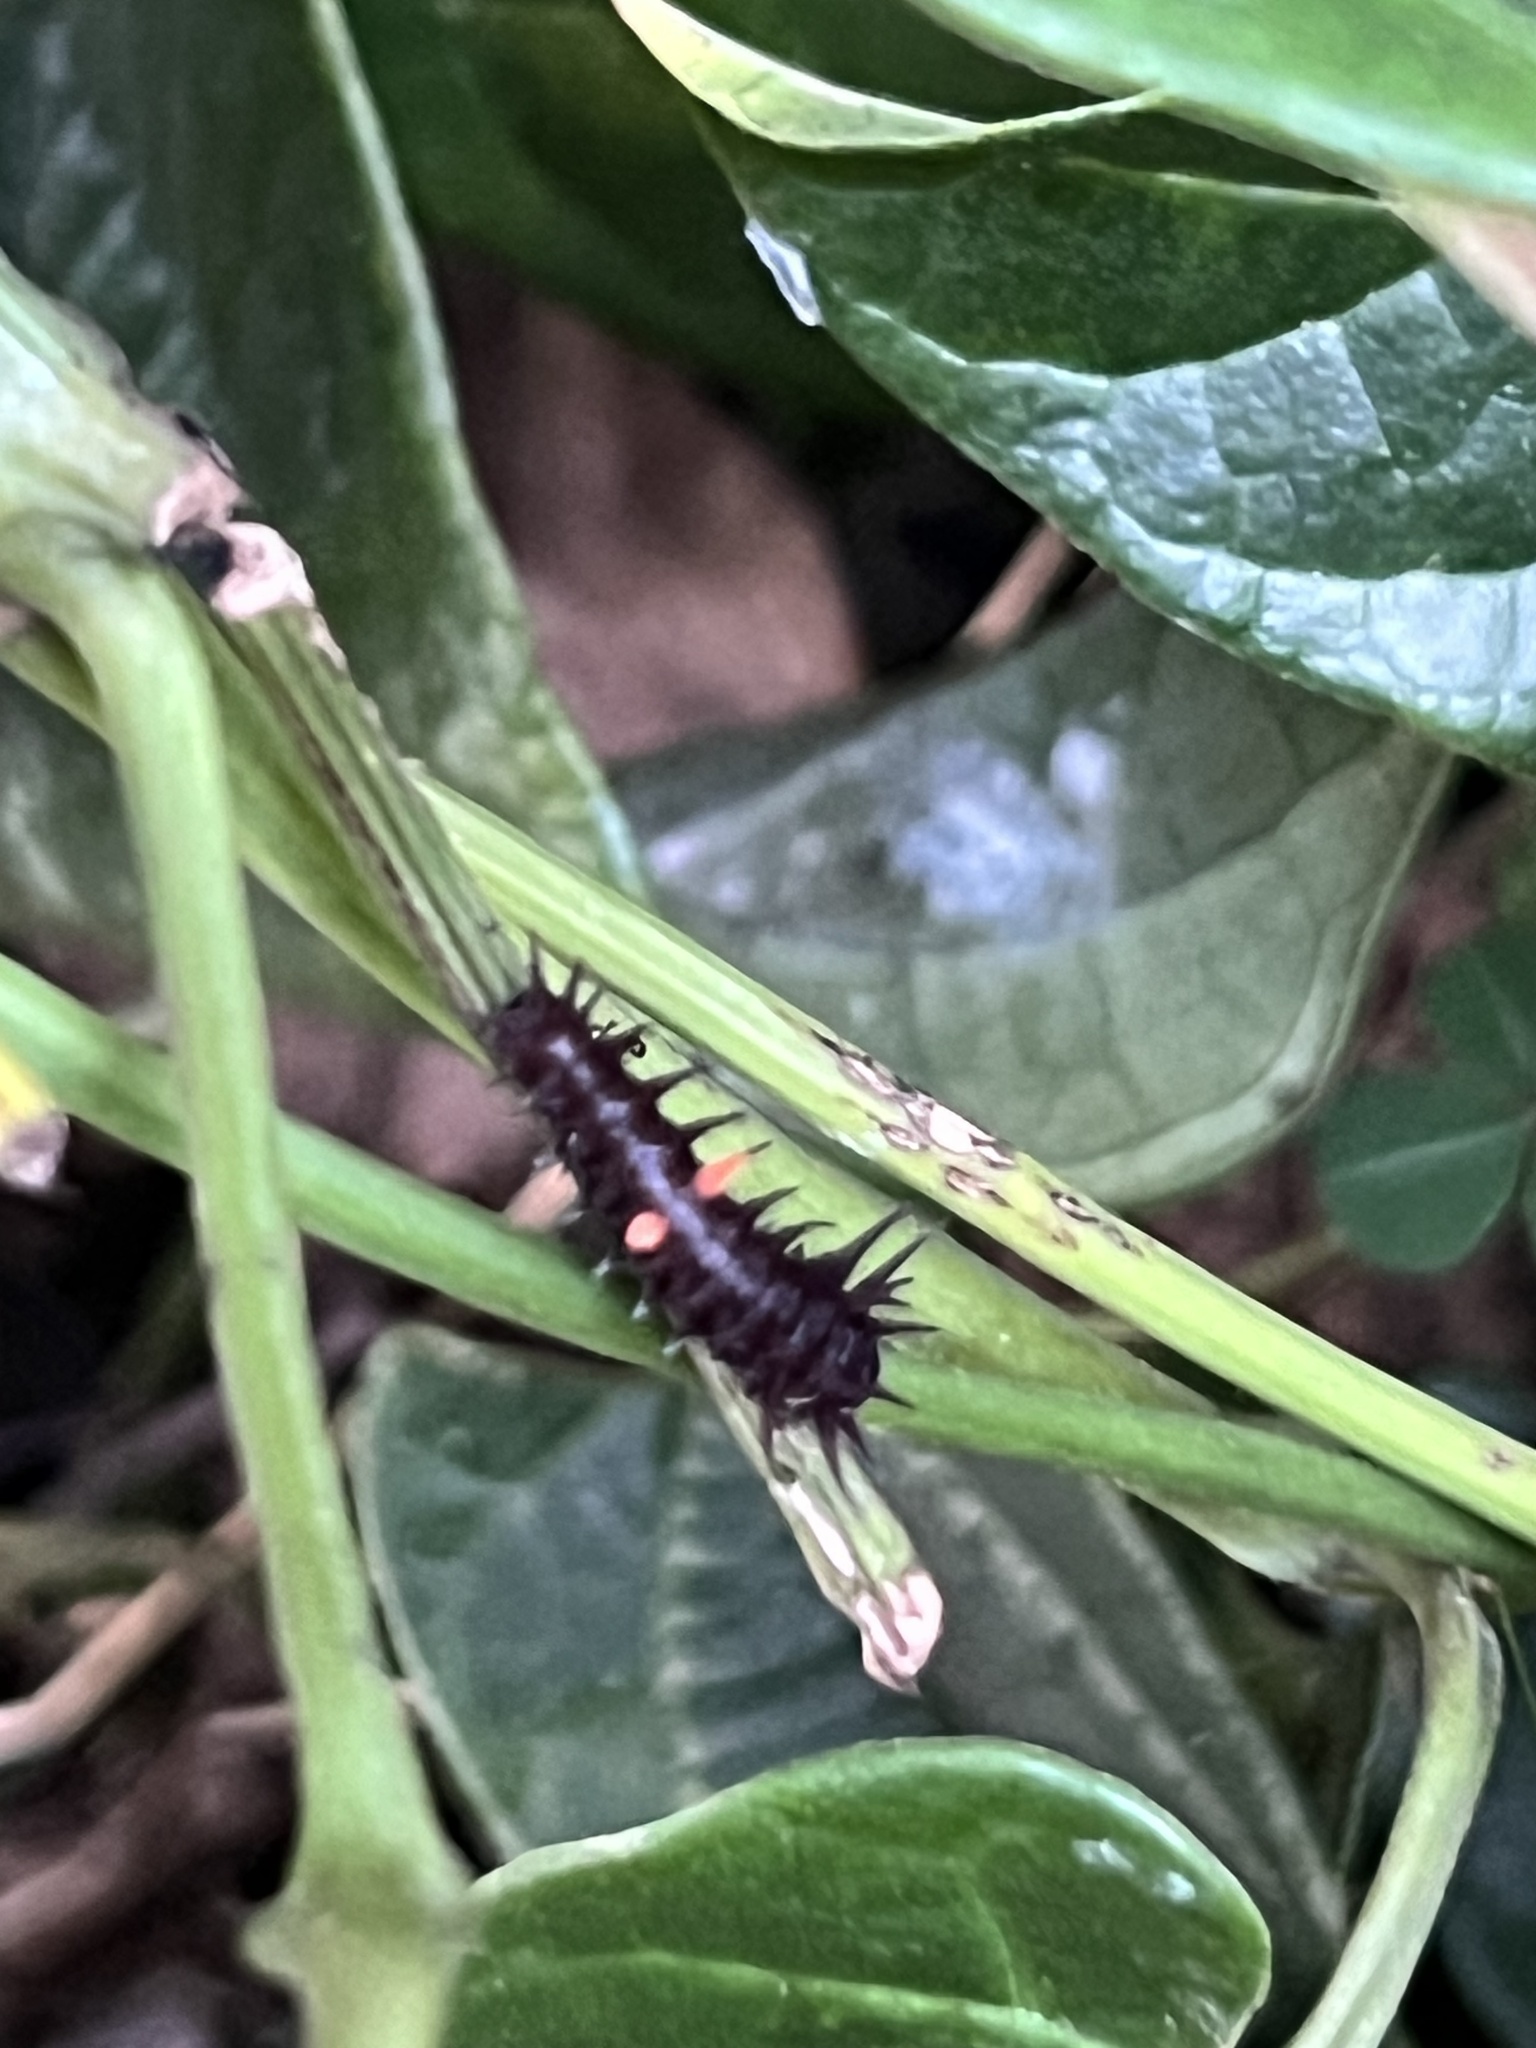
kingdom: Animalia
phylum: Arthropoda
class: Insecta
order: Lepidoptera
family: Papilionidae
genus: Ornithoptera
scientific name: Ornithoptera euphorion
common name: Cairns birdwing
